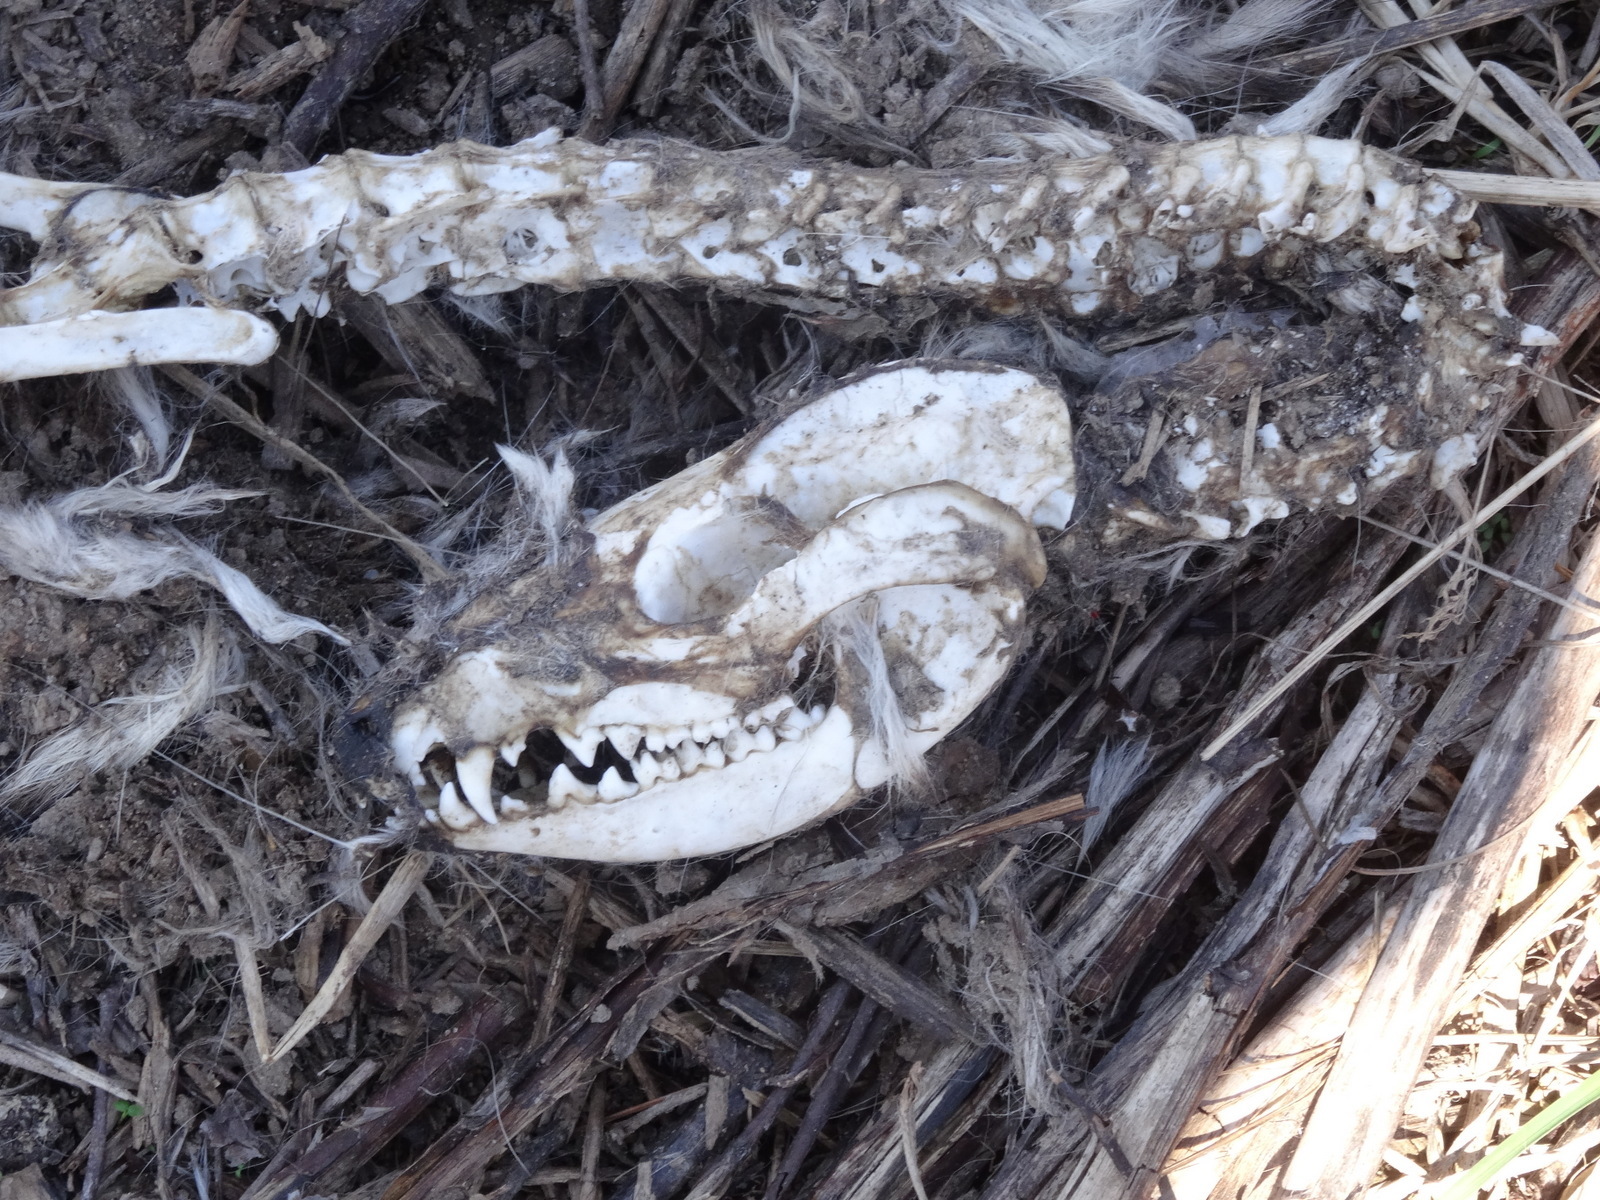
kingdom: Animalia
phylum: Chordata
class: Mammalia
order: Didelphimorphia
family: Didelphidae
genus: Didelphis
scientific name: Didelphis virginiana
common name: Virginia opossum
